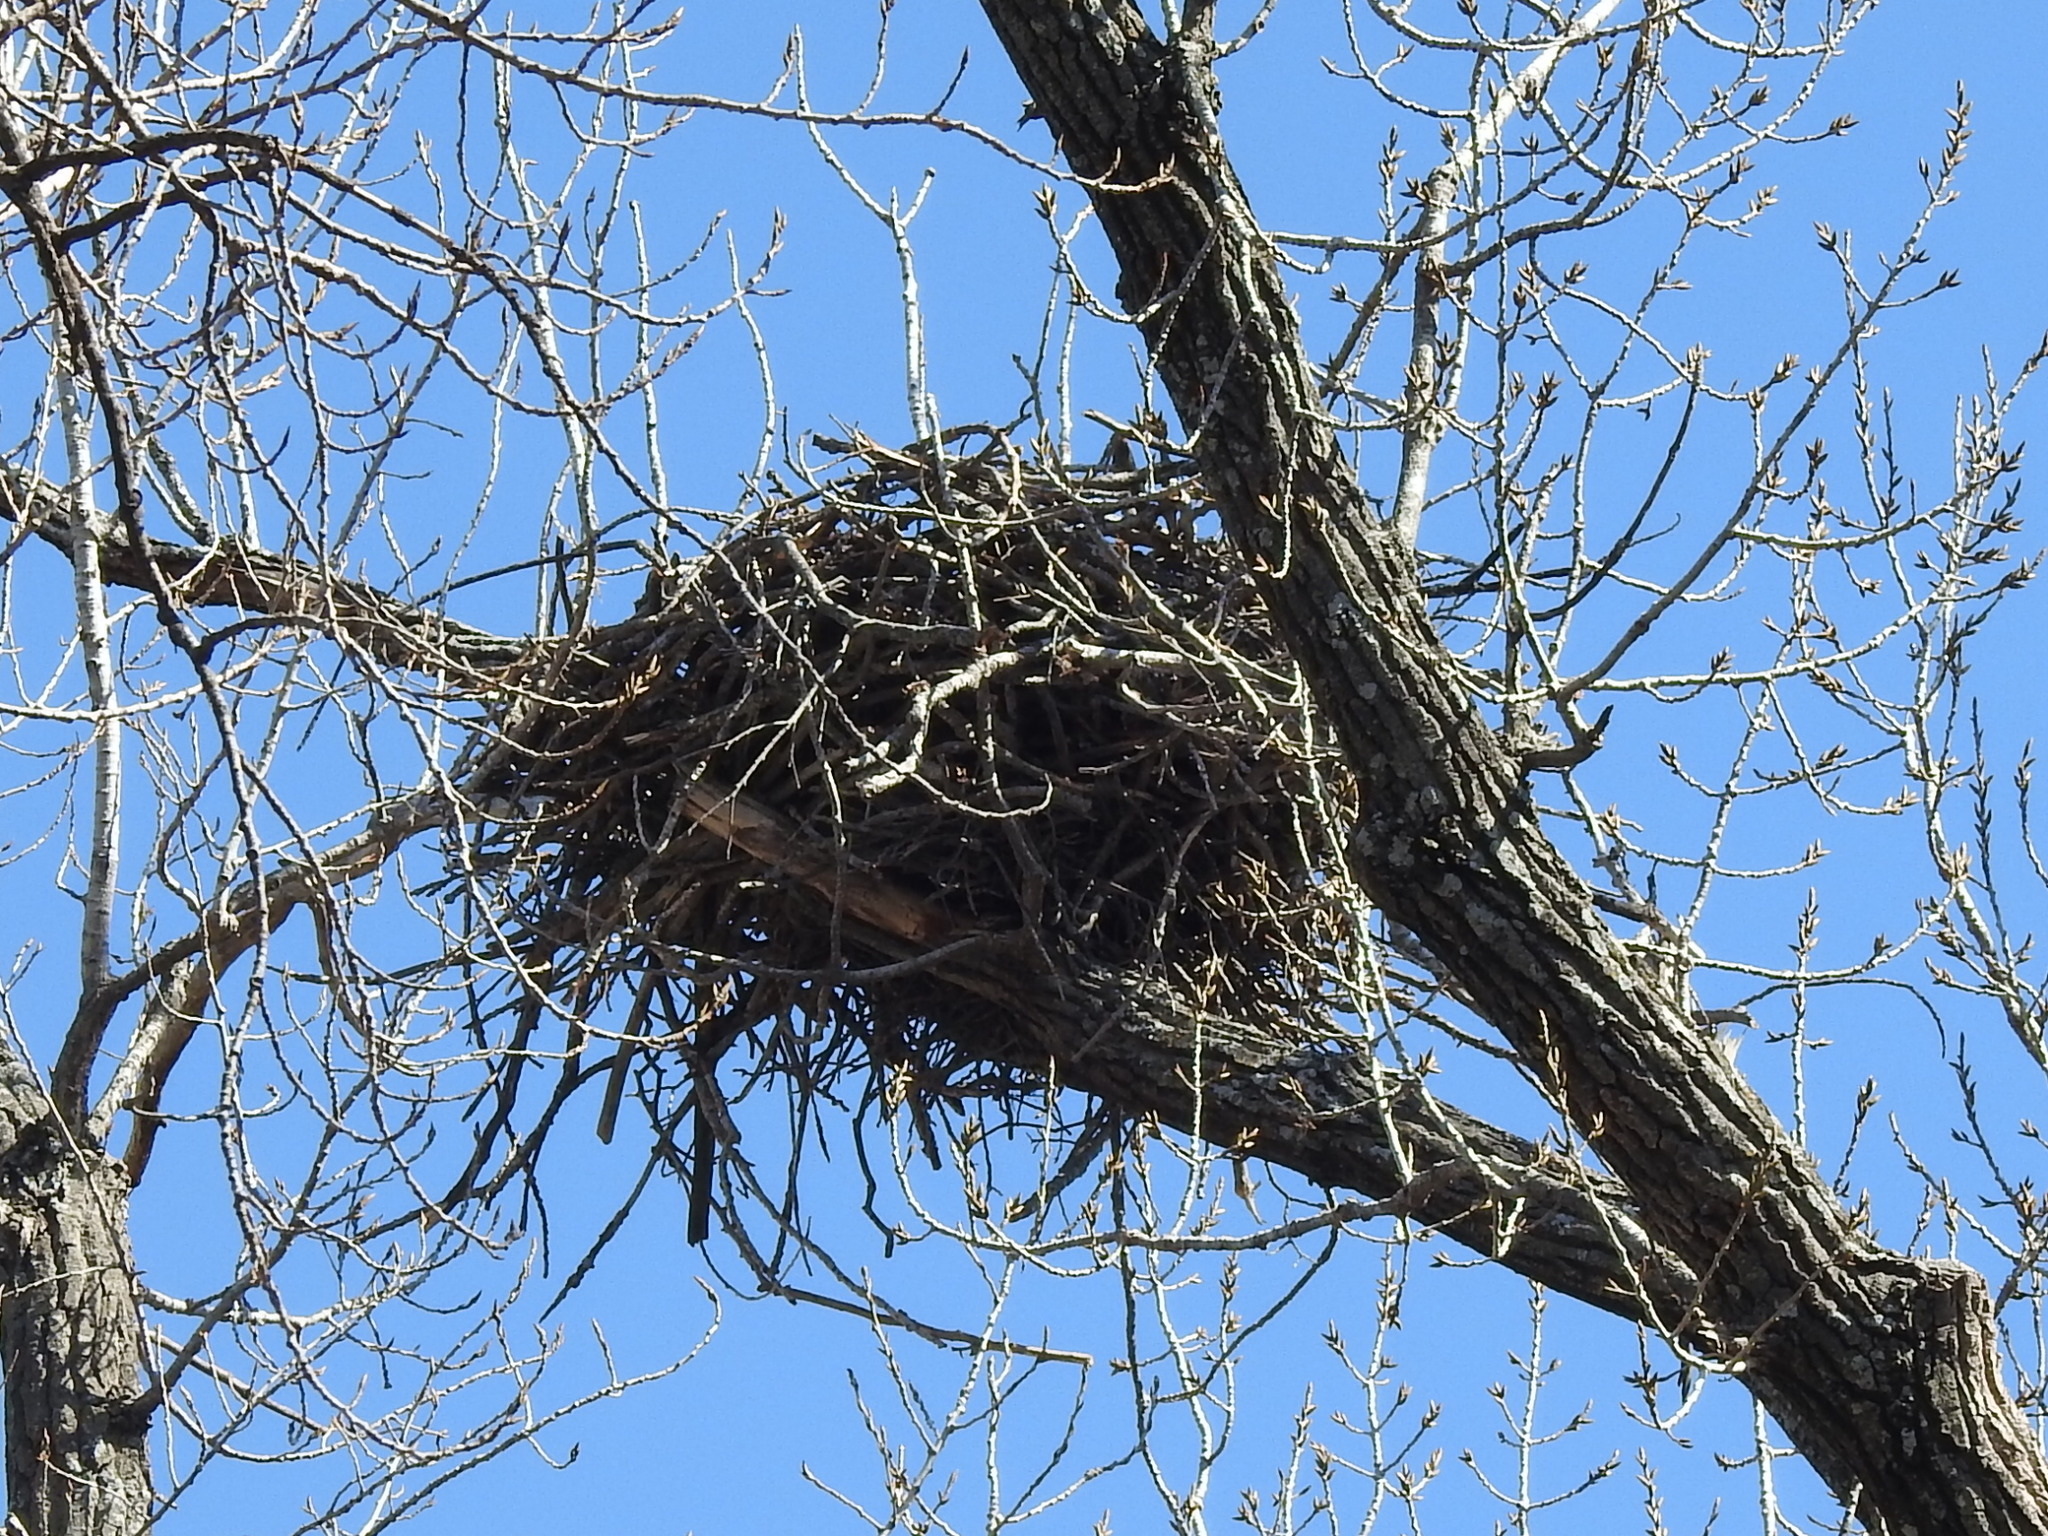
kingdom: Animalia
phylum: Chordata
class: Aves
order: Accipitriformes
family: Accipitridae
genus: Haliaeetus
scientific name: Haliaeetus leucocephalus
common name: Bald eagle
